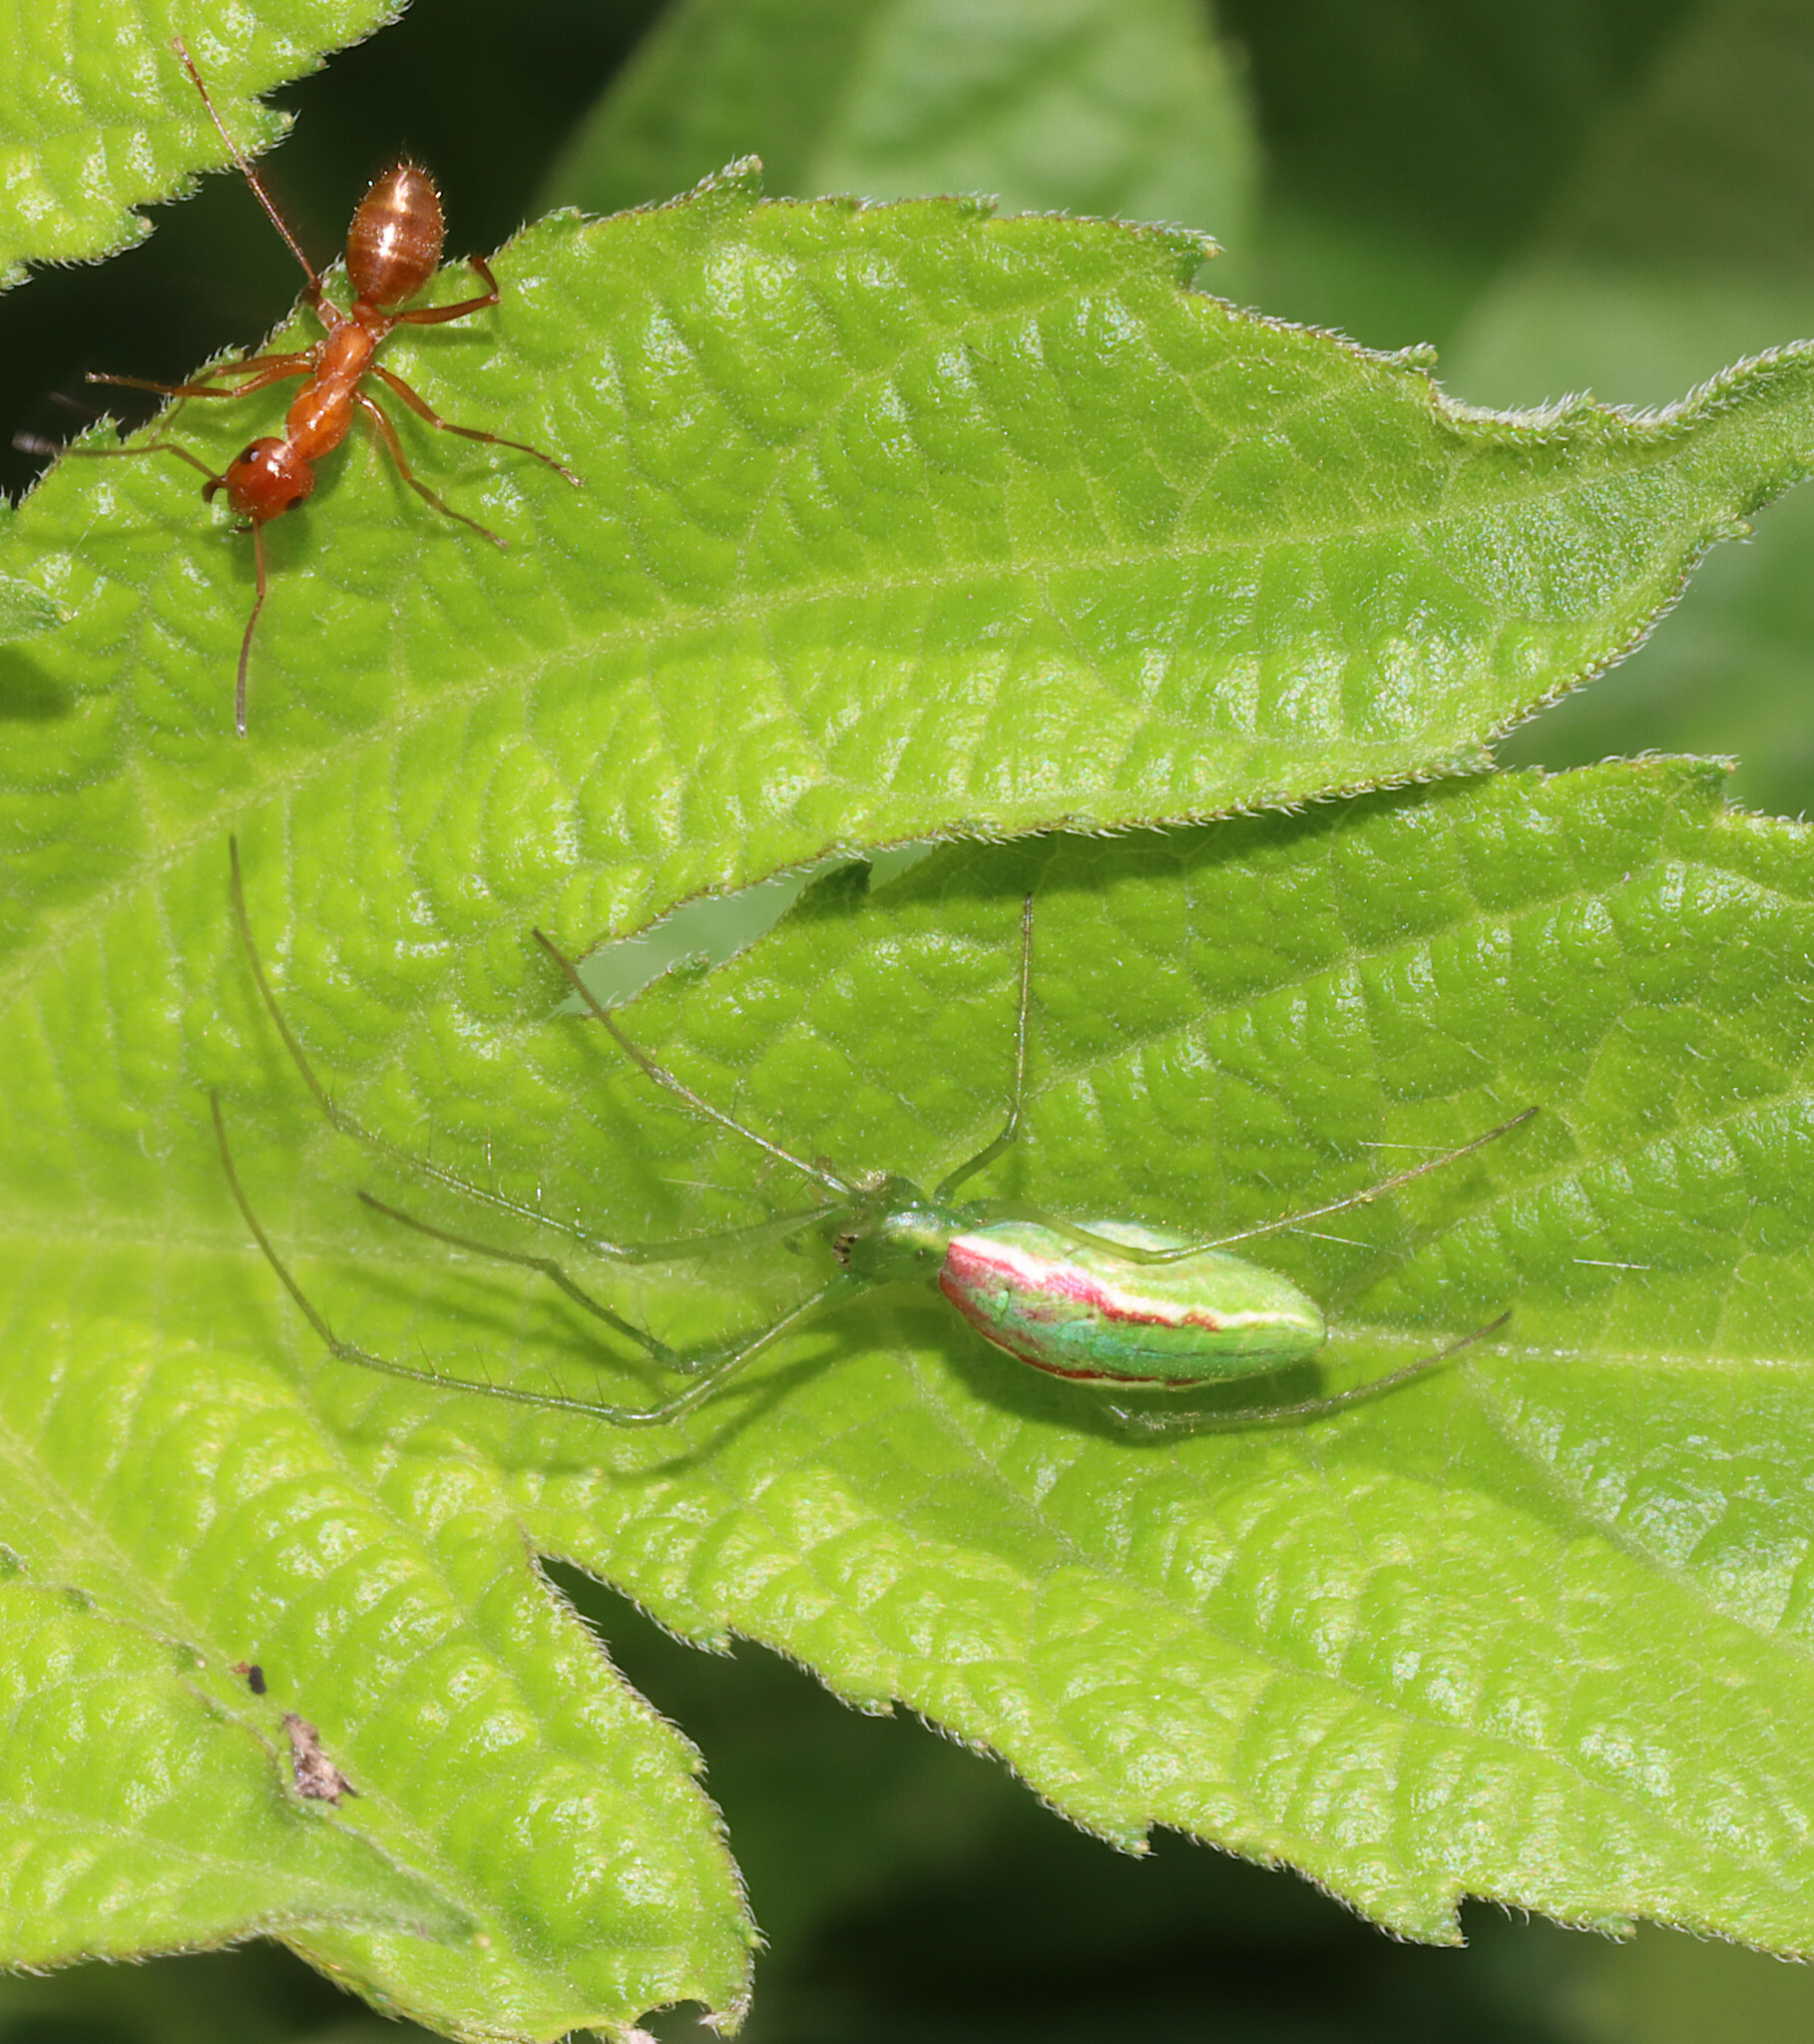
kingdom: Animalia
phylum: Arthropoda
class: Arachnida
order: Araneae
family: Tetragnathidae
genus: Tetragnatha
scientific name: Tetragnatha viridis
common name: Green long-jawed spider
